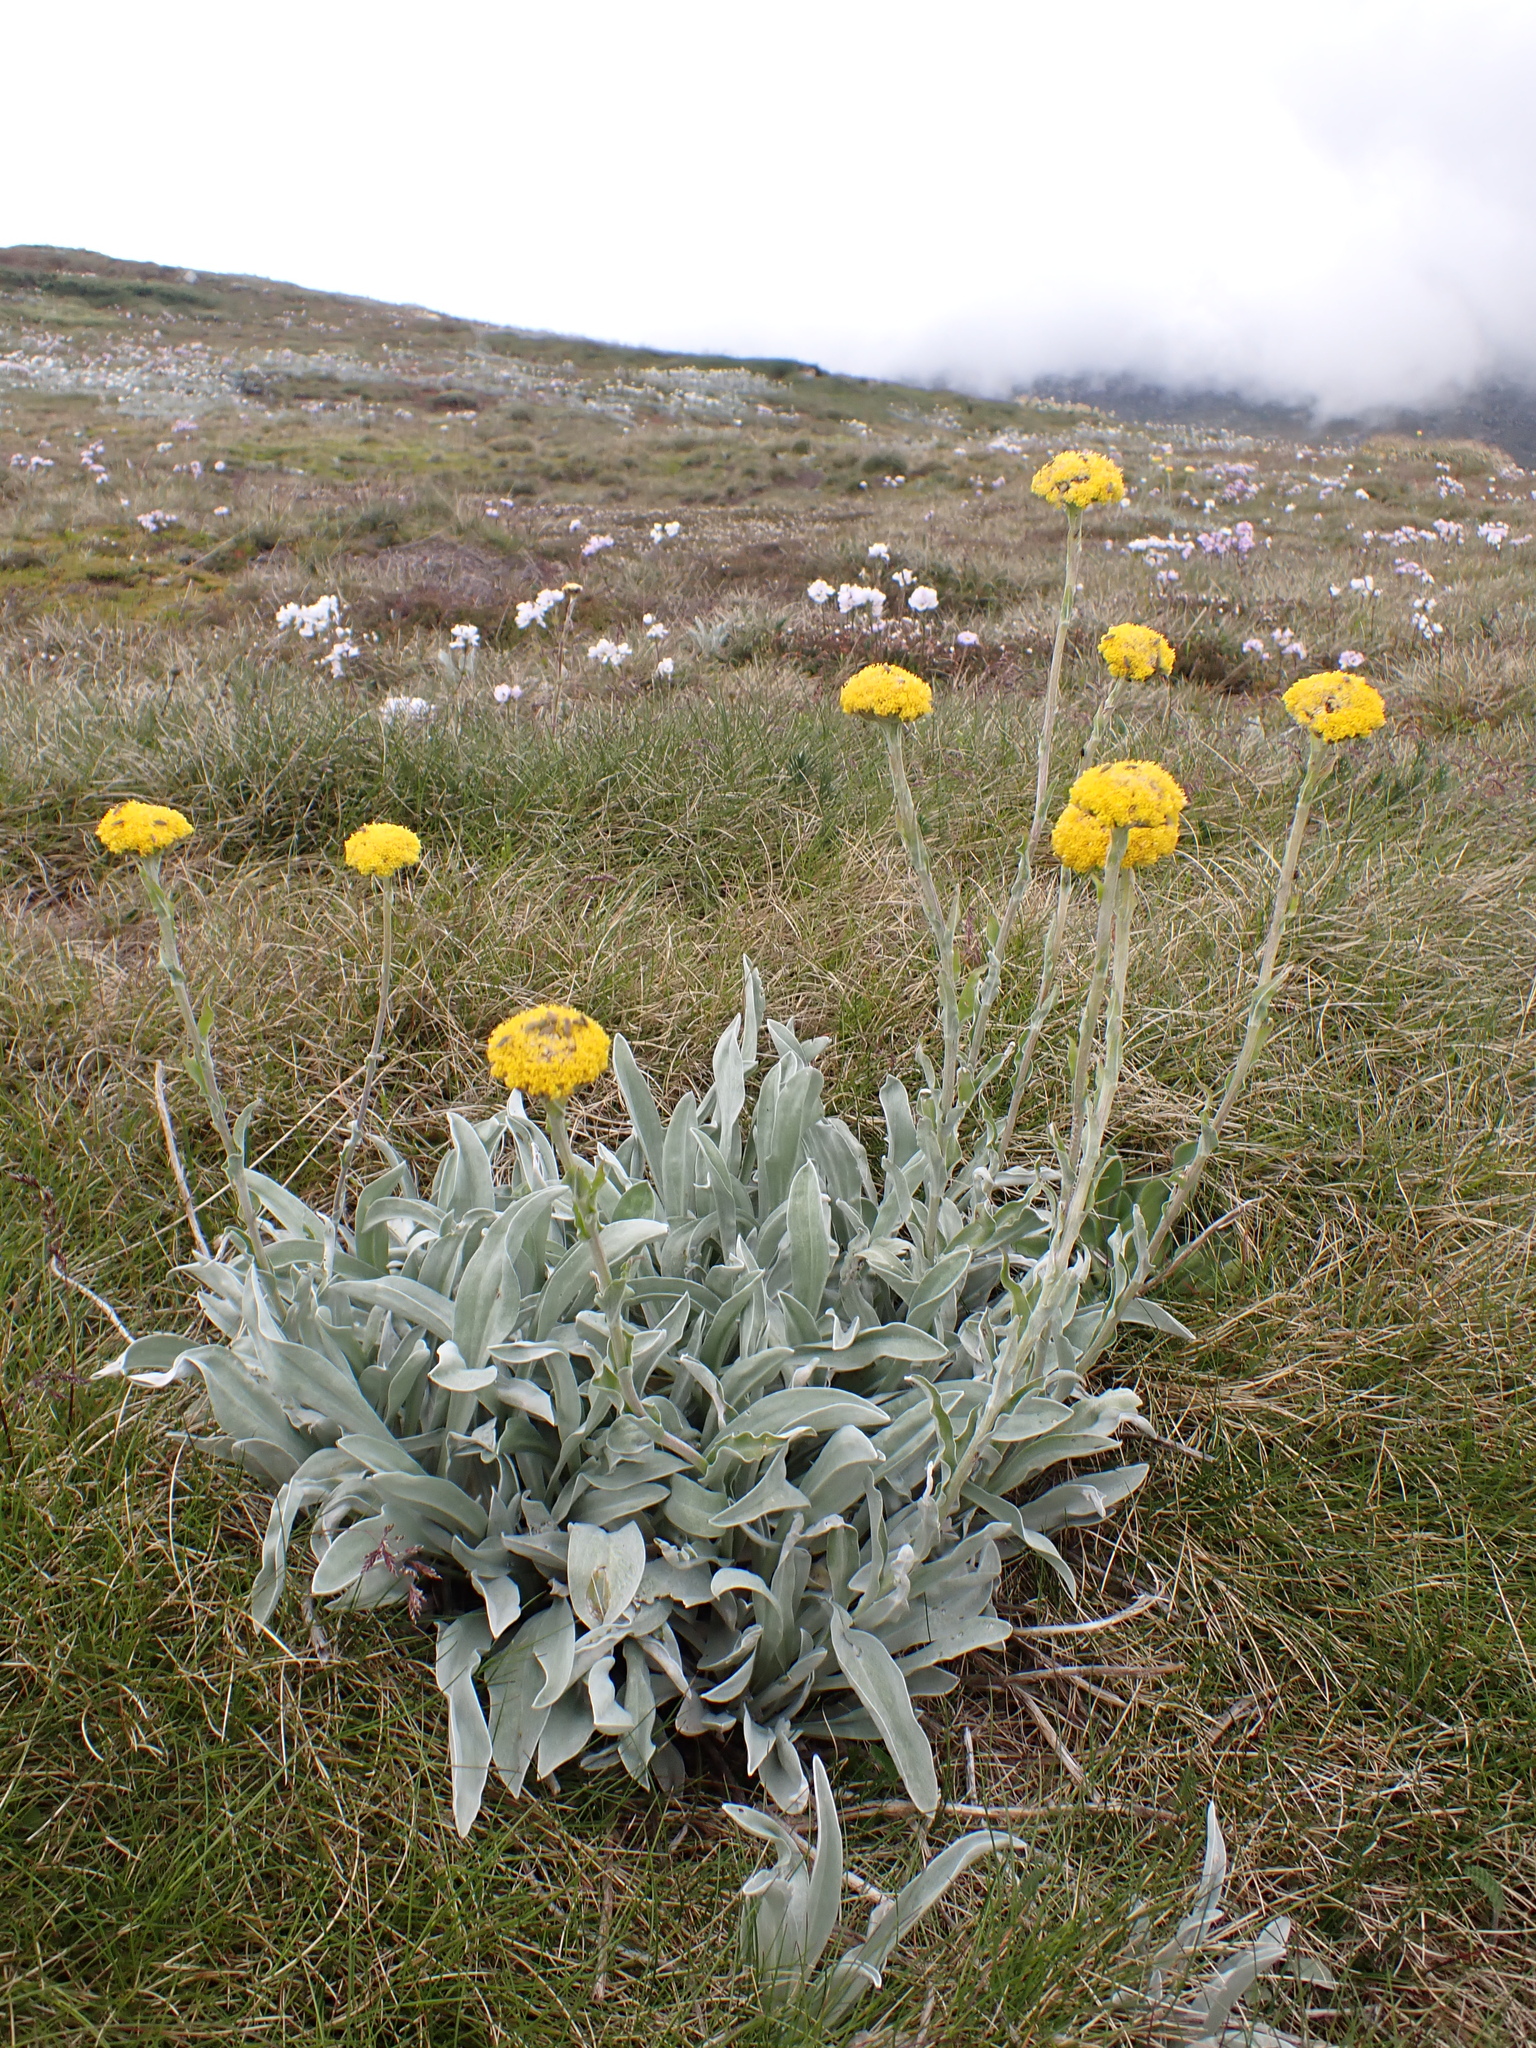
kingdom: Plantae
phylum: Tracheophyta
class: Magnoliopsida
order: Asterales
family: Asteraceae
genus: Craspedia
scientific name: Craspedia maxgrayi
